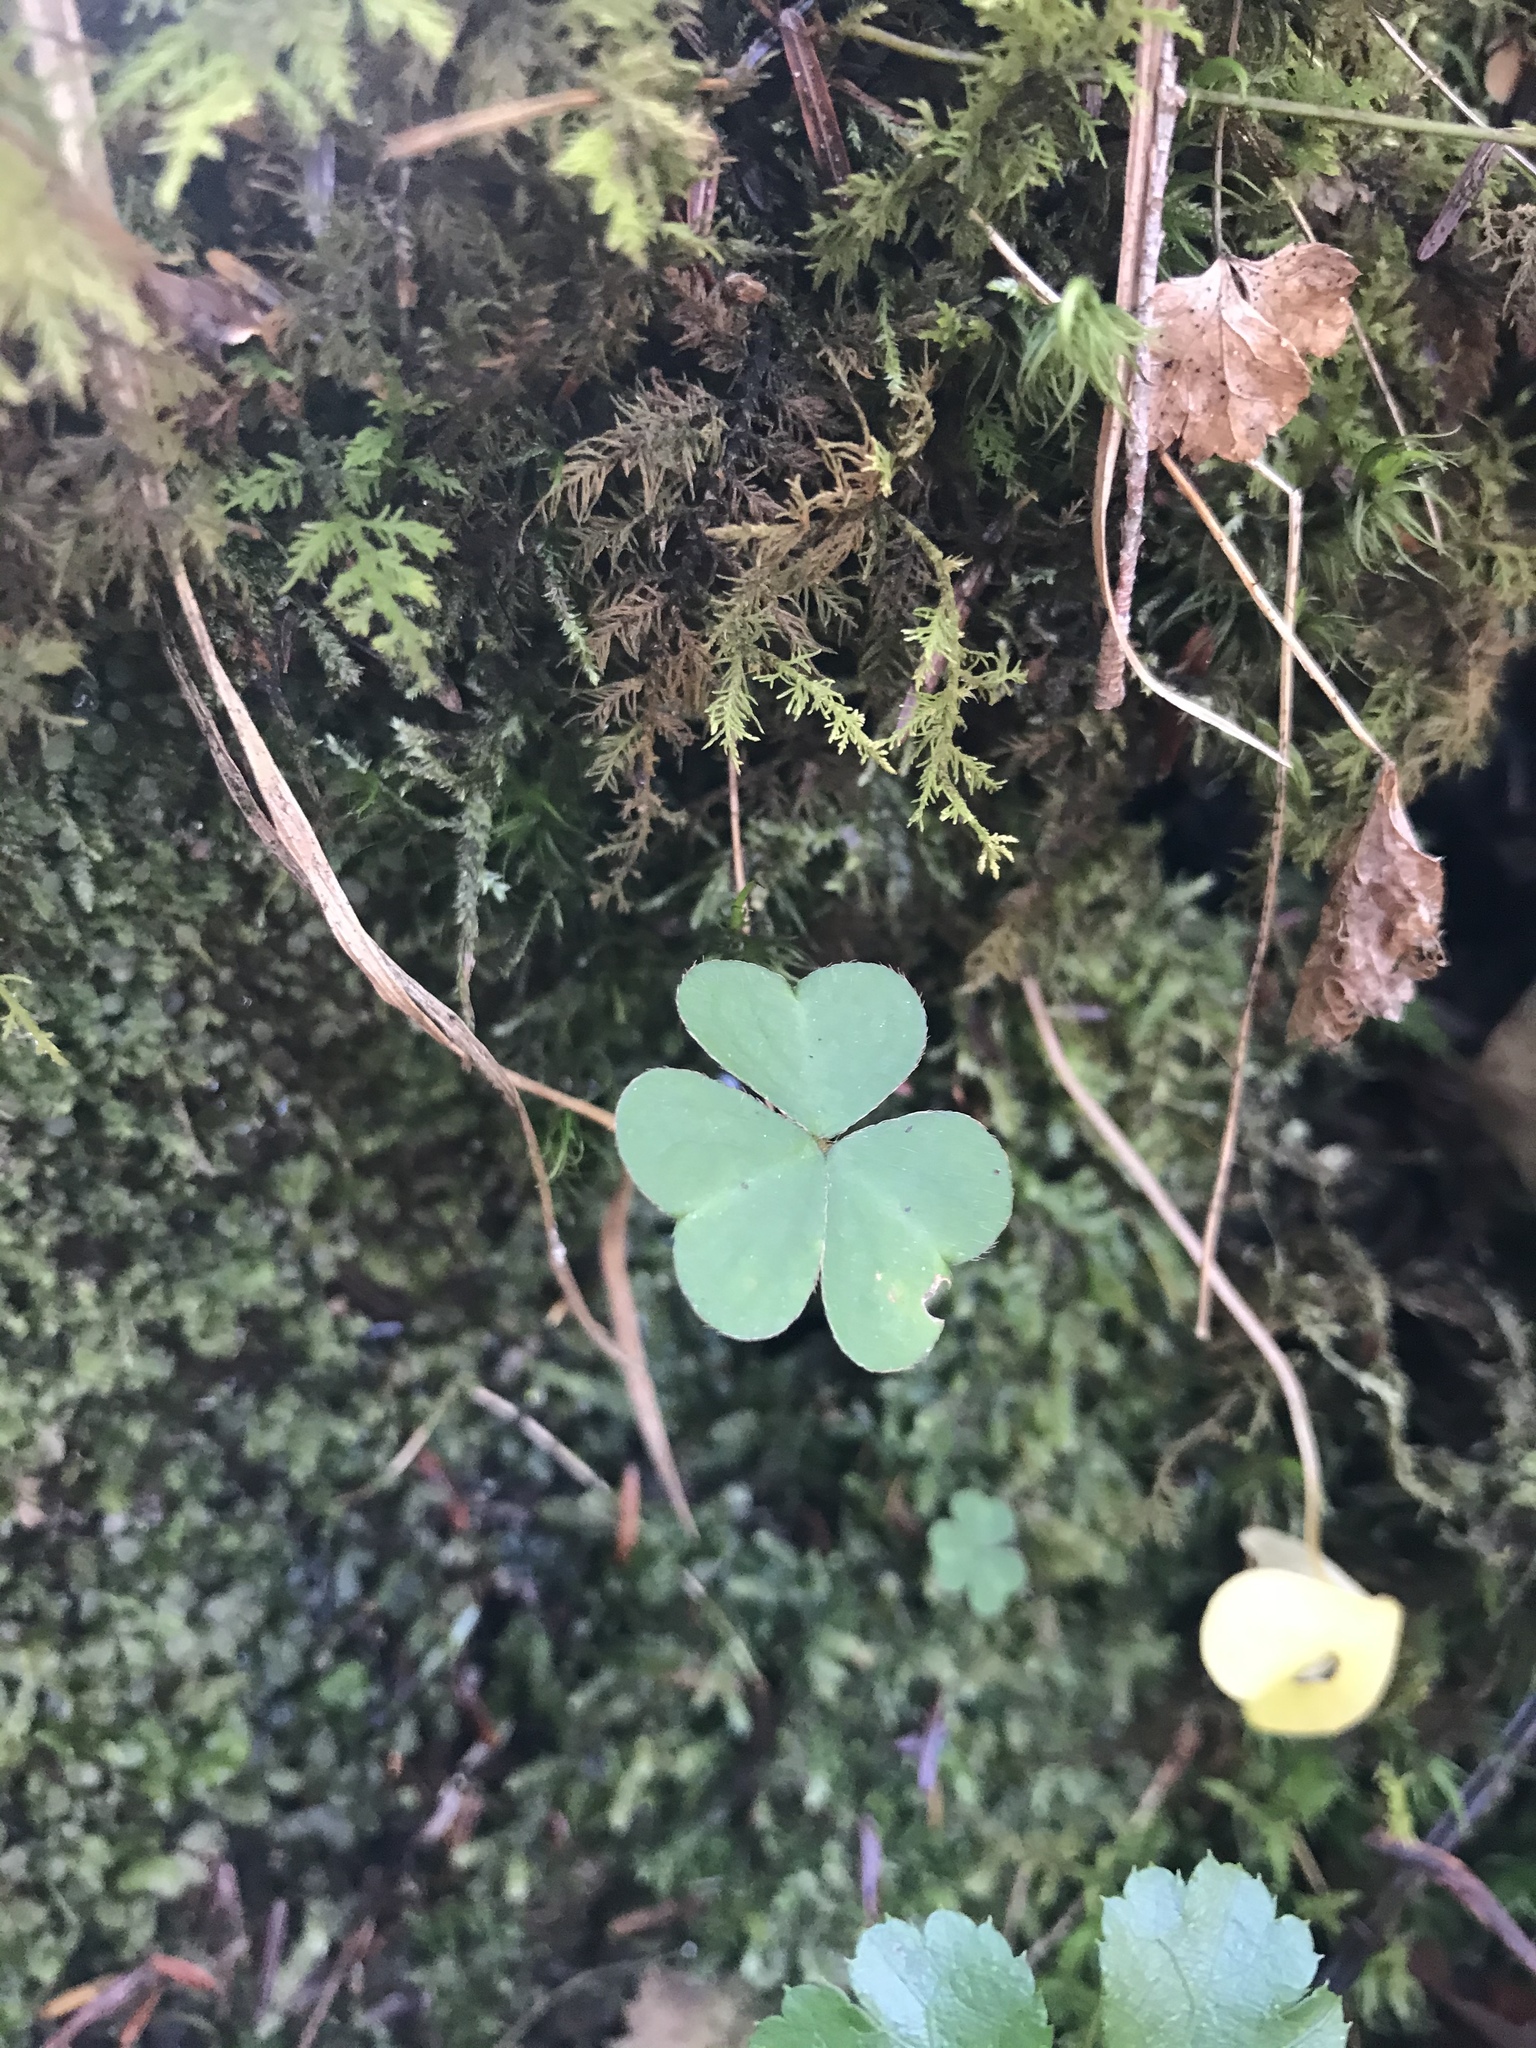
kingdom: Plantae
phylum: Tracheophyta
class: Magnoliopsida
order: Oxalidales
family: Oxalidaceae
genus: Oxalis
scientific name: Oxalis montana
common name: American wood-sorrel
